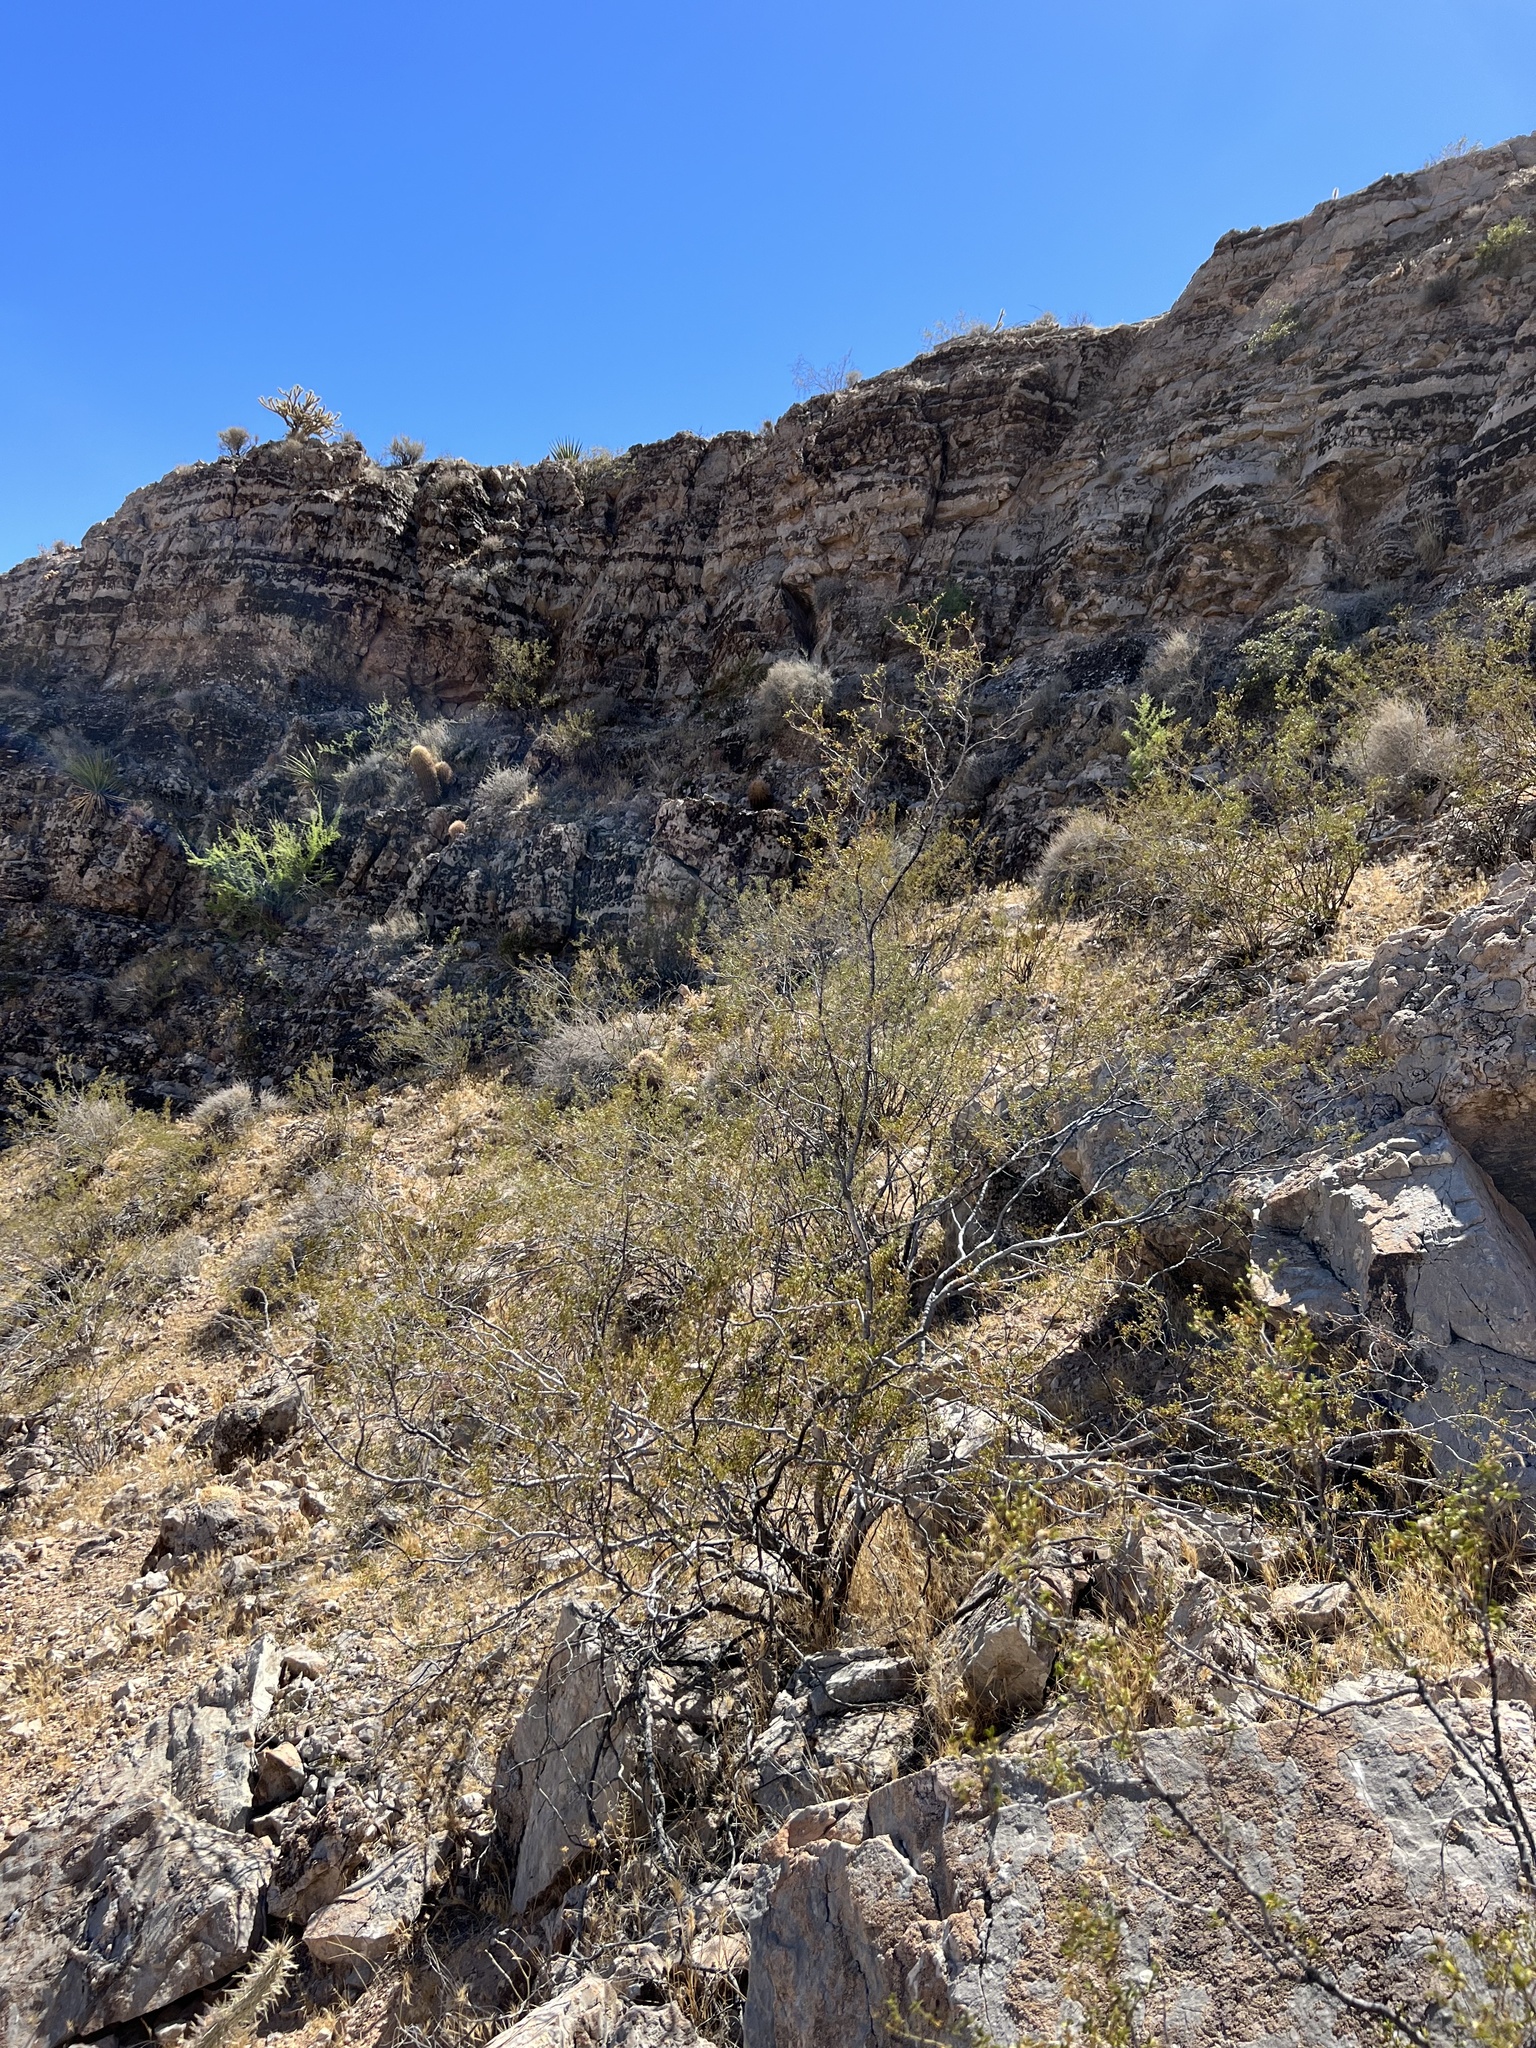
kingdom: Plantae
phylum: Tracheophyta
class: Magnoliopsida
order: Zygophyllales
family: Zygophyllaceae
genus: Larrea
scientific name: Larrea tridentata
